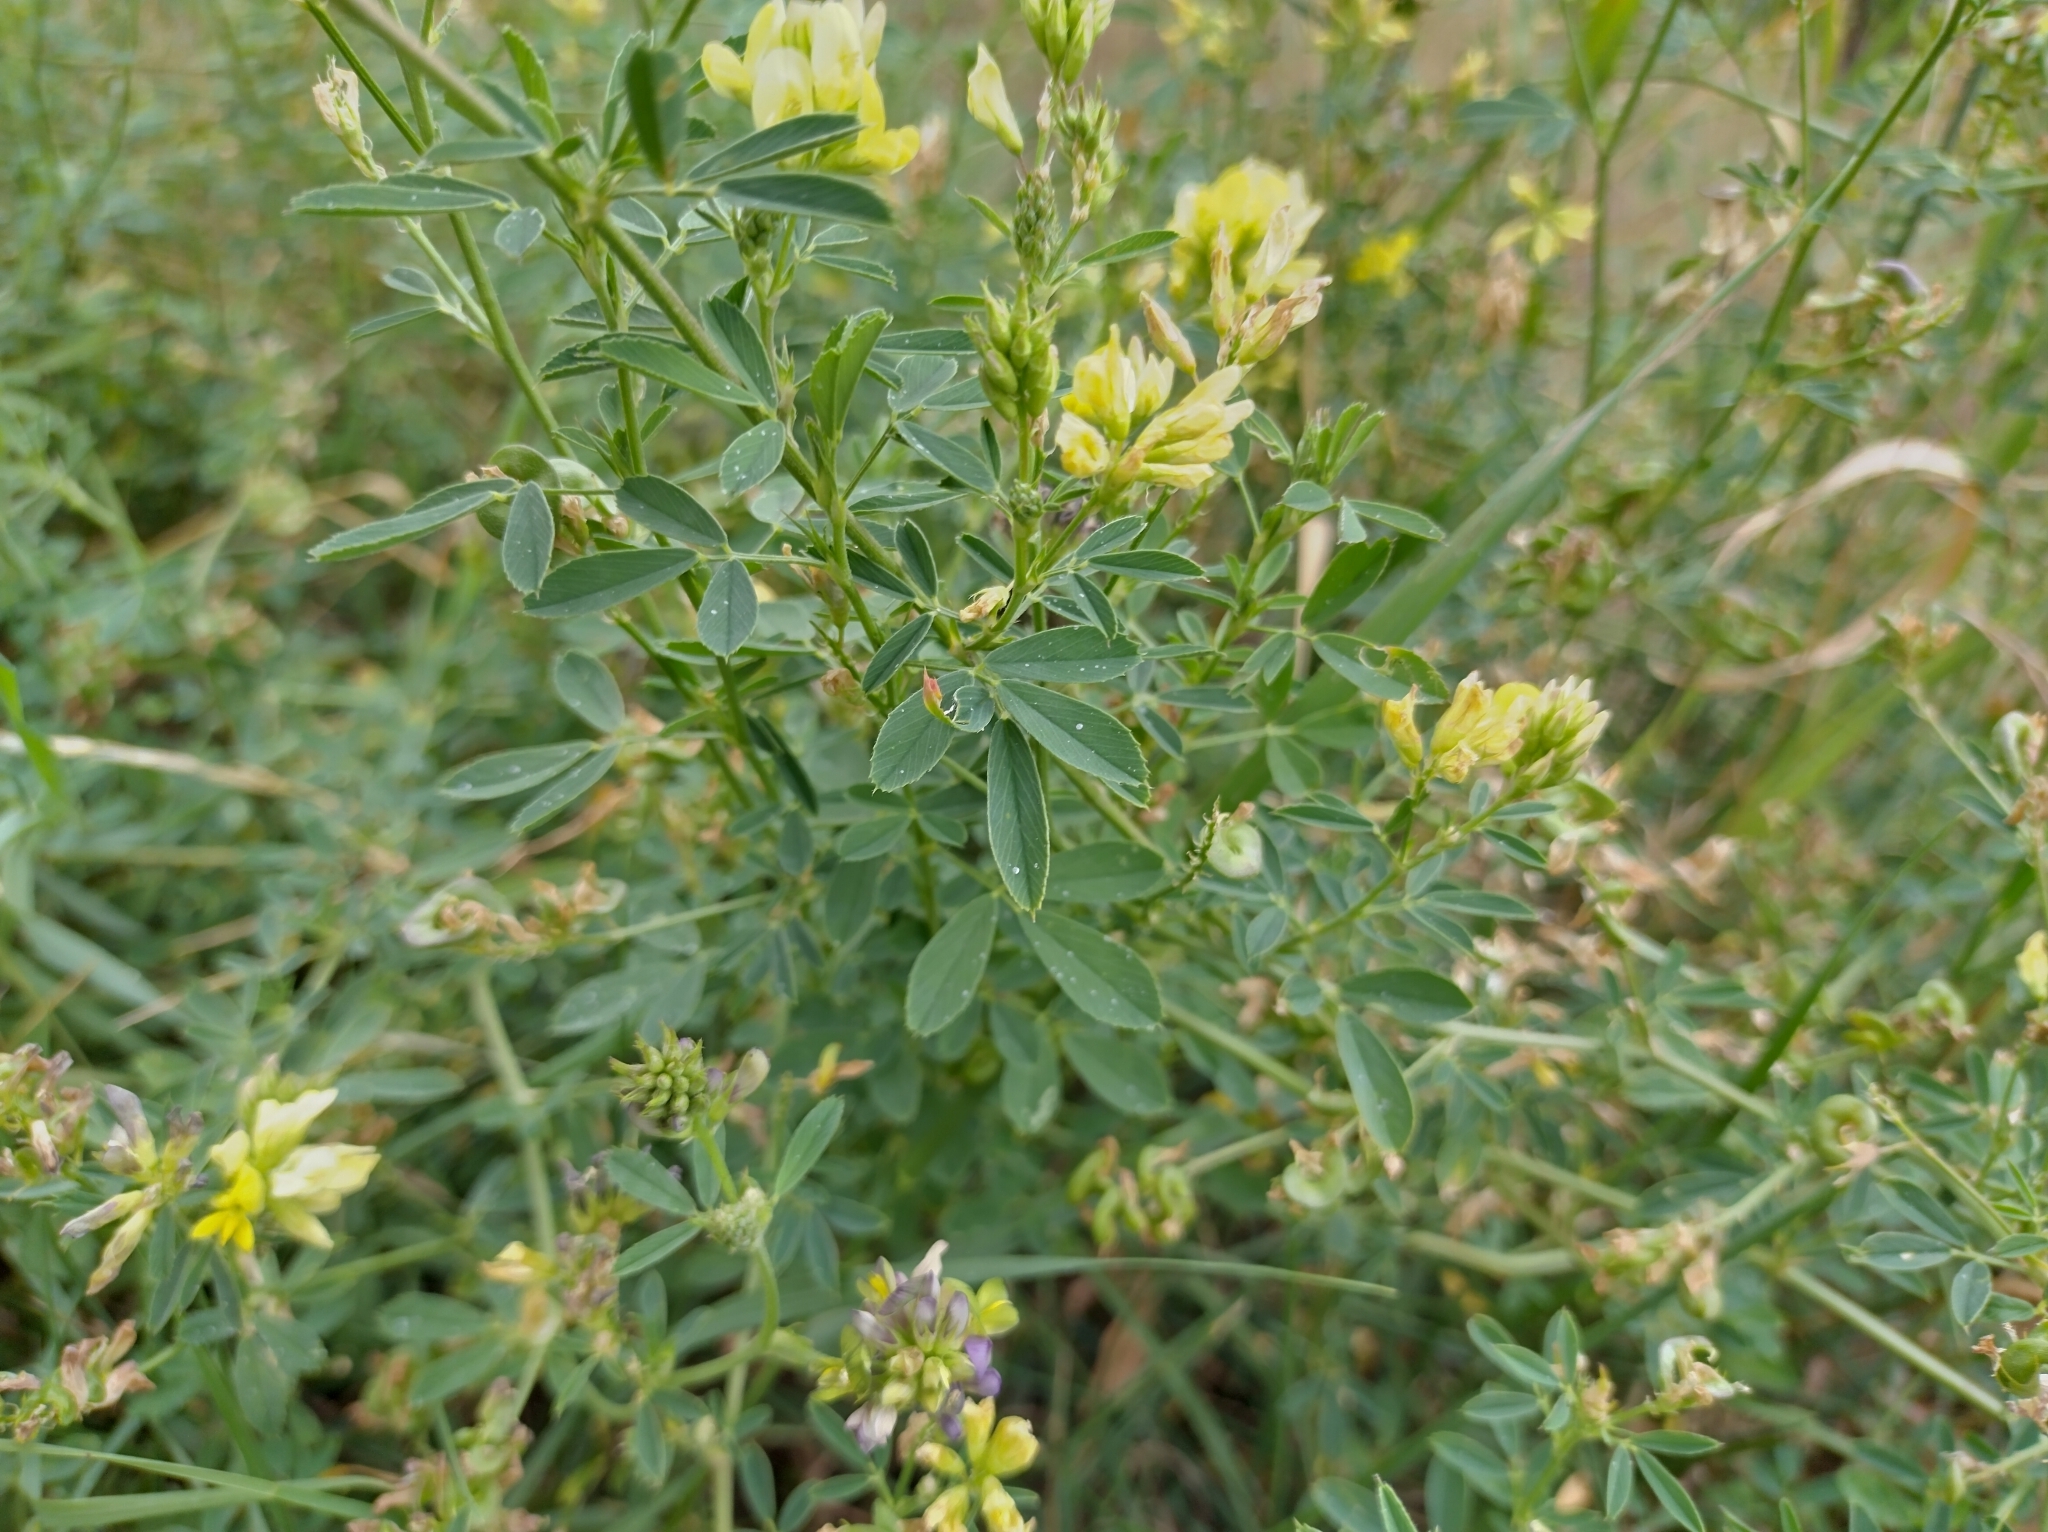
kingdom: Plantae
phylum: Tracheophyta
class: Magnoliopsida
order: Fabales
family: Fabaceae
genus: Medicago
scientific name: Medicago falcata
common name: Sickle medick
